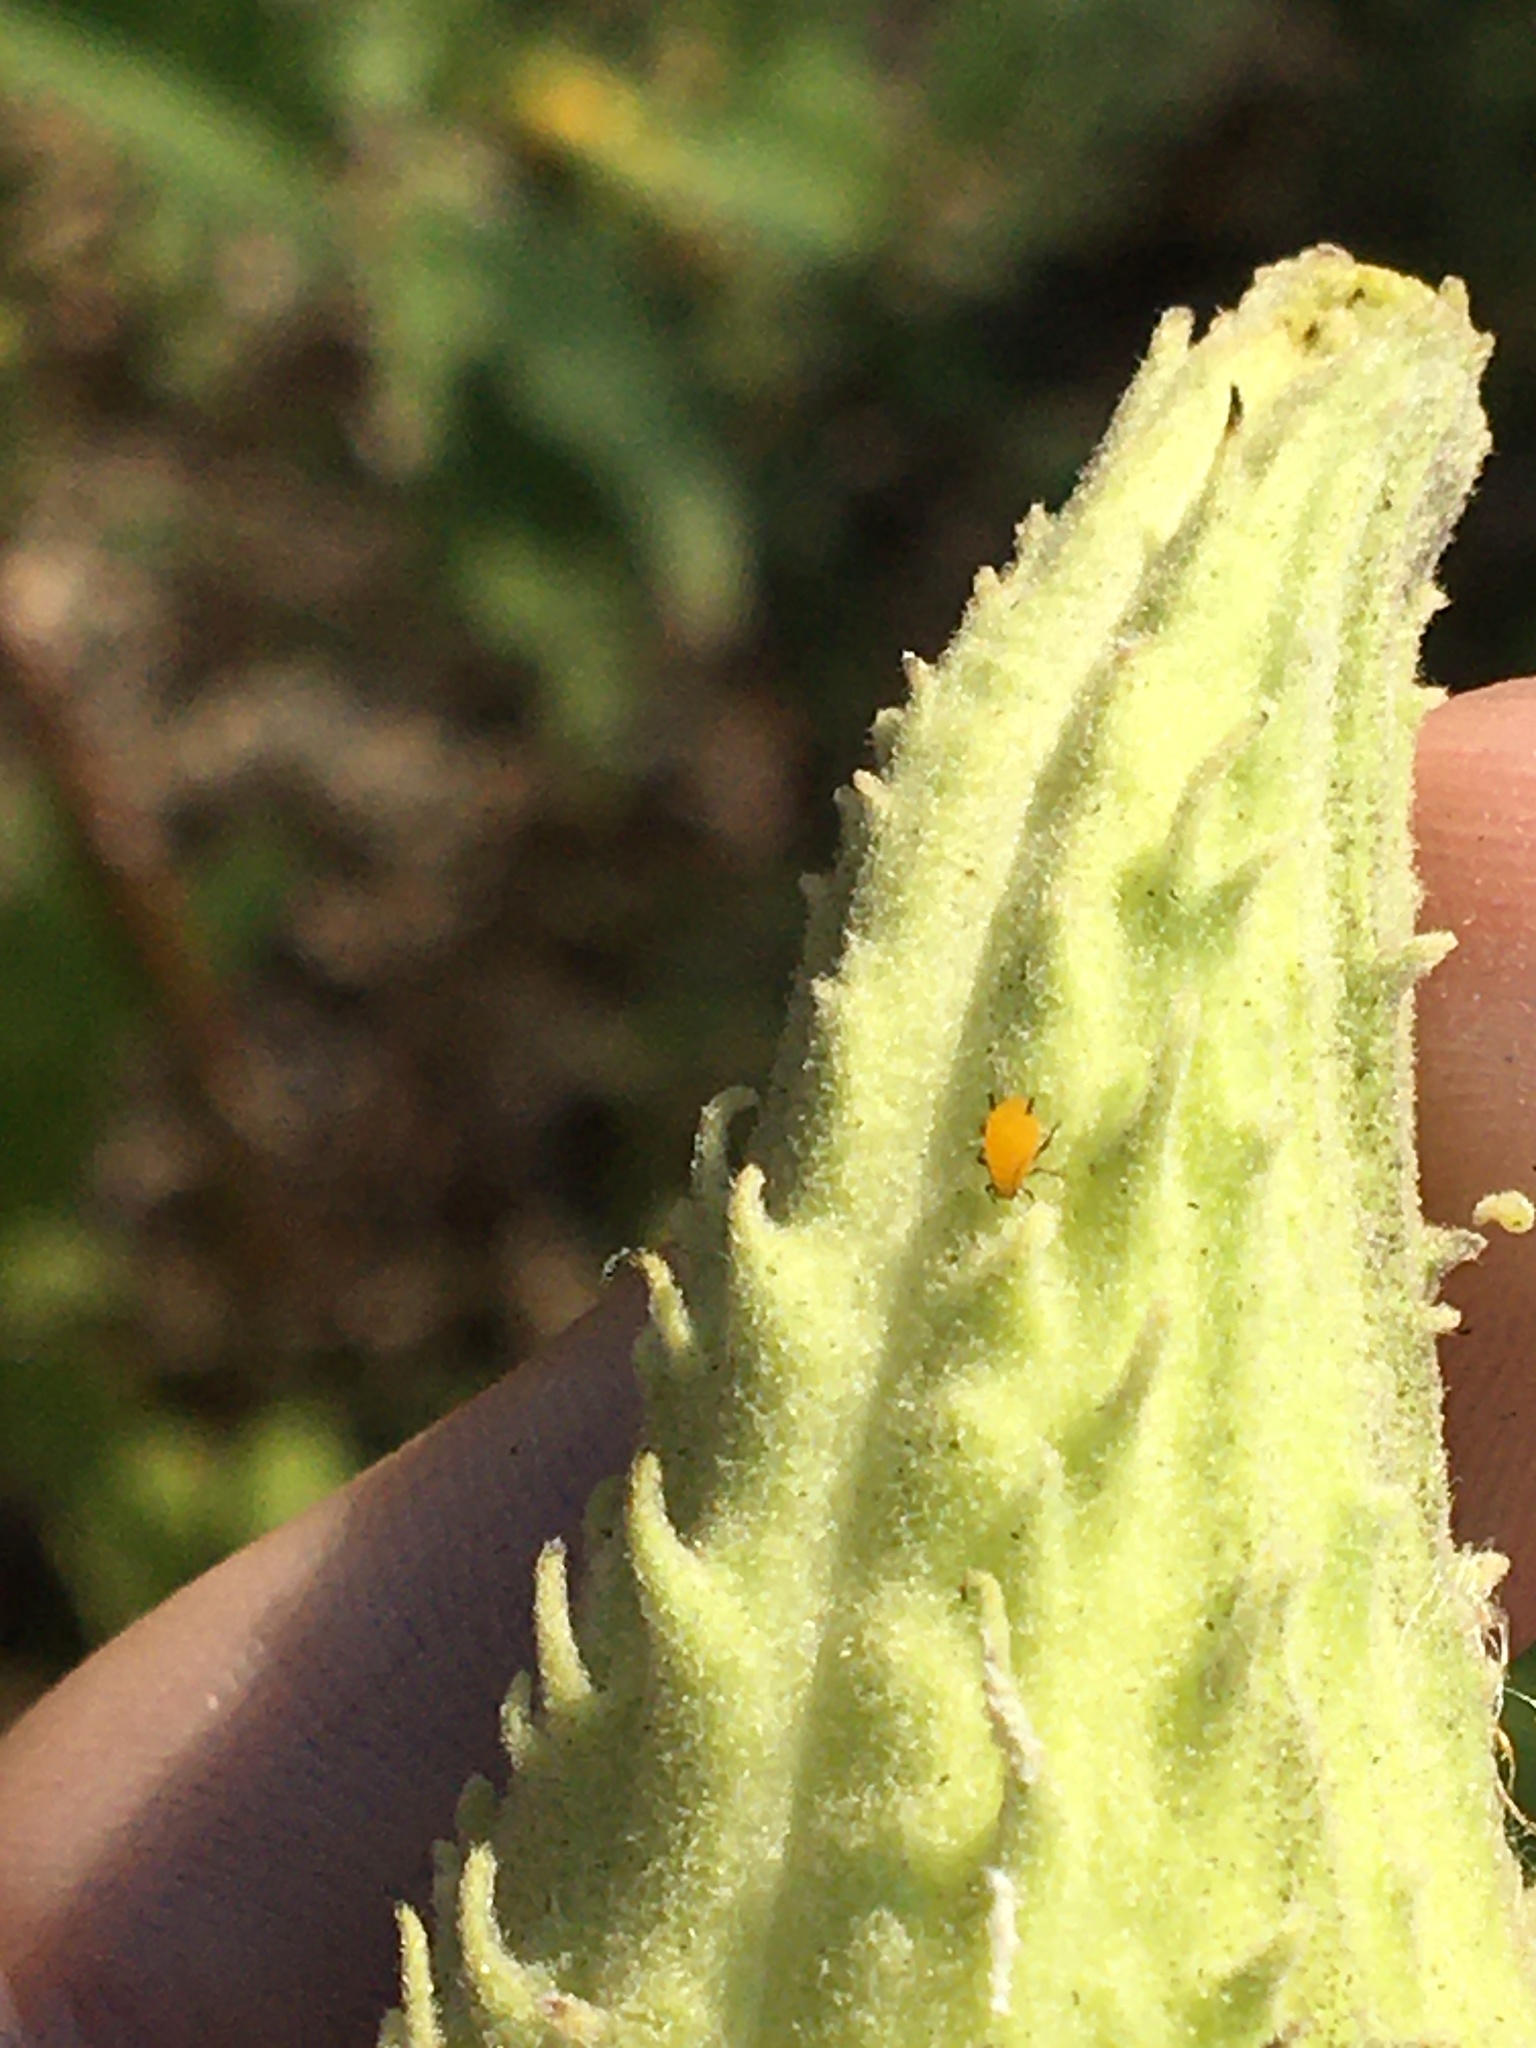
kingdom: Animalia
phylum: Arthropoda
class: Insecta
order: Hemiptera
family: Aphididae
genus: Aphis
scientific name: Aphis nerii
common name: Oleander aphid
